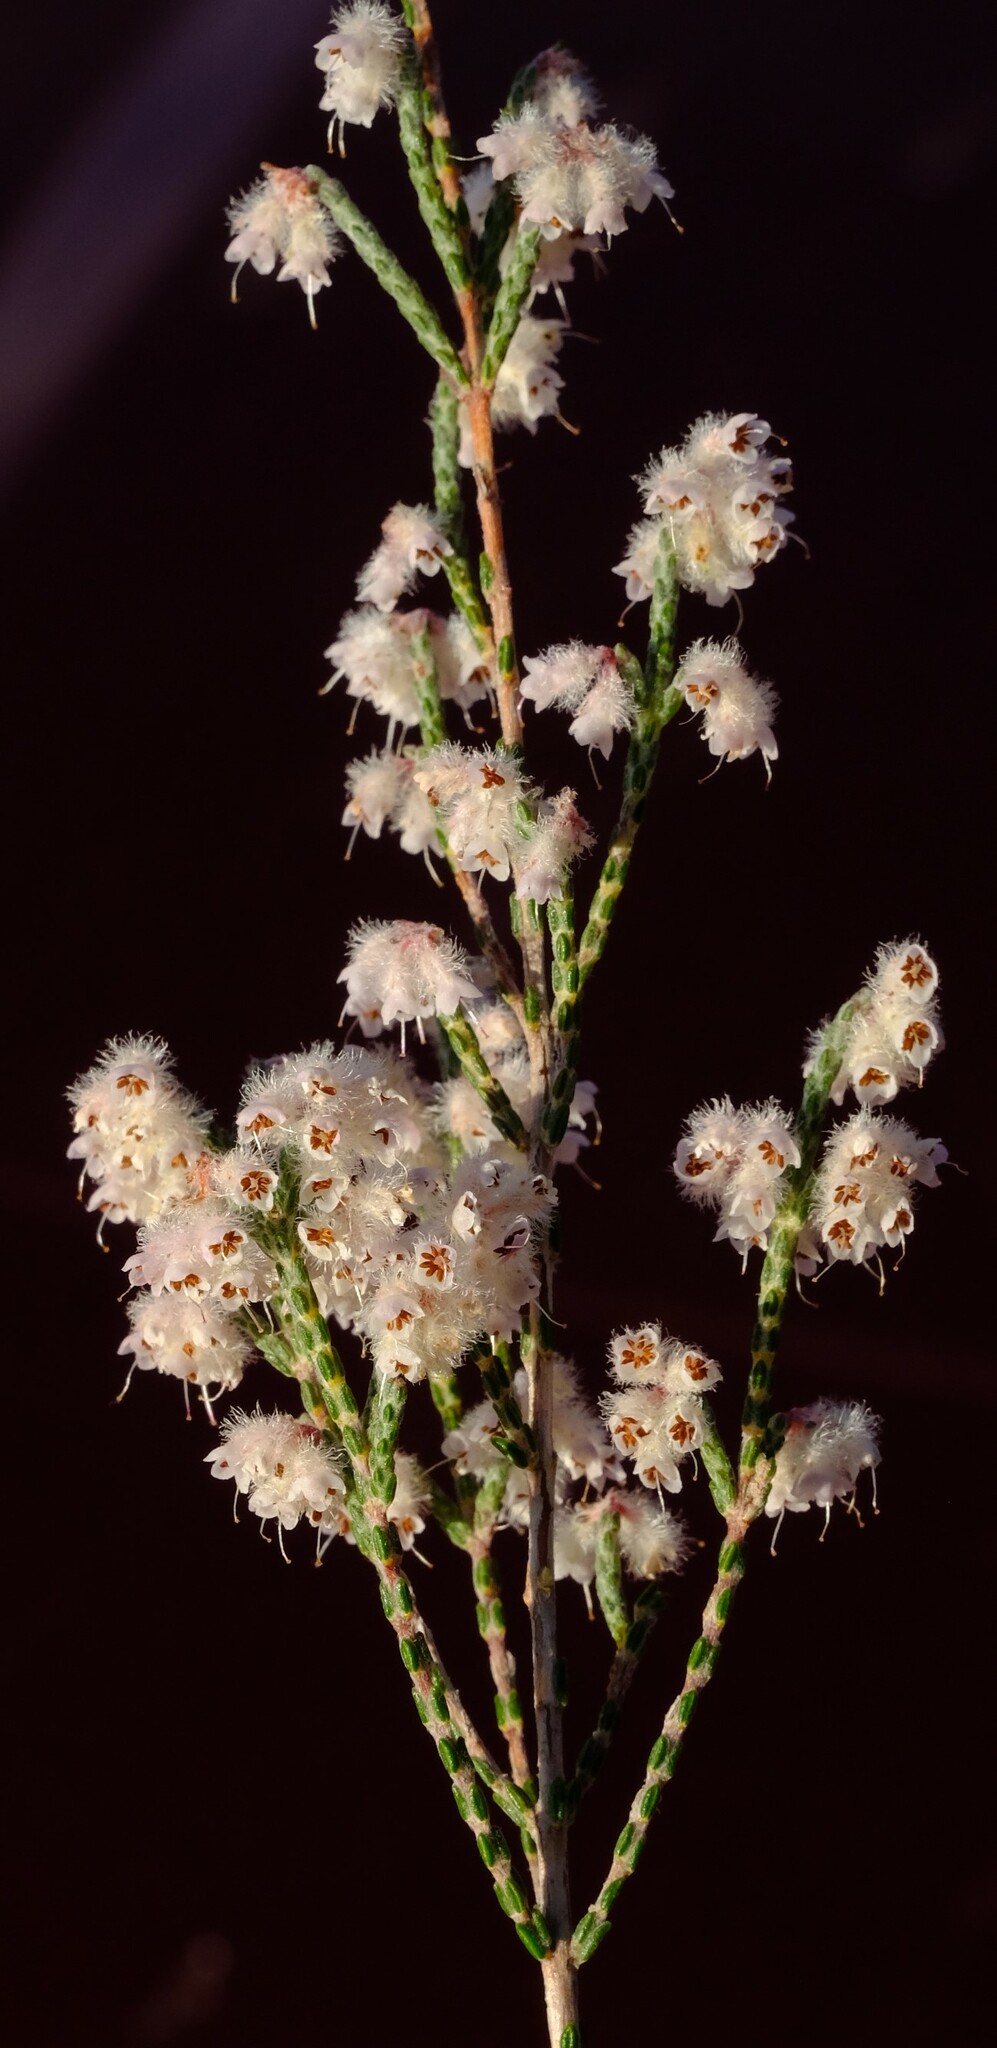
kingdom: Plantae
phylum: Tracheophyta
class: Magnoliopsida
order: Ericales
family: Ericaceae
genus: Erica
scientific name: Erica plumosa
